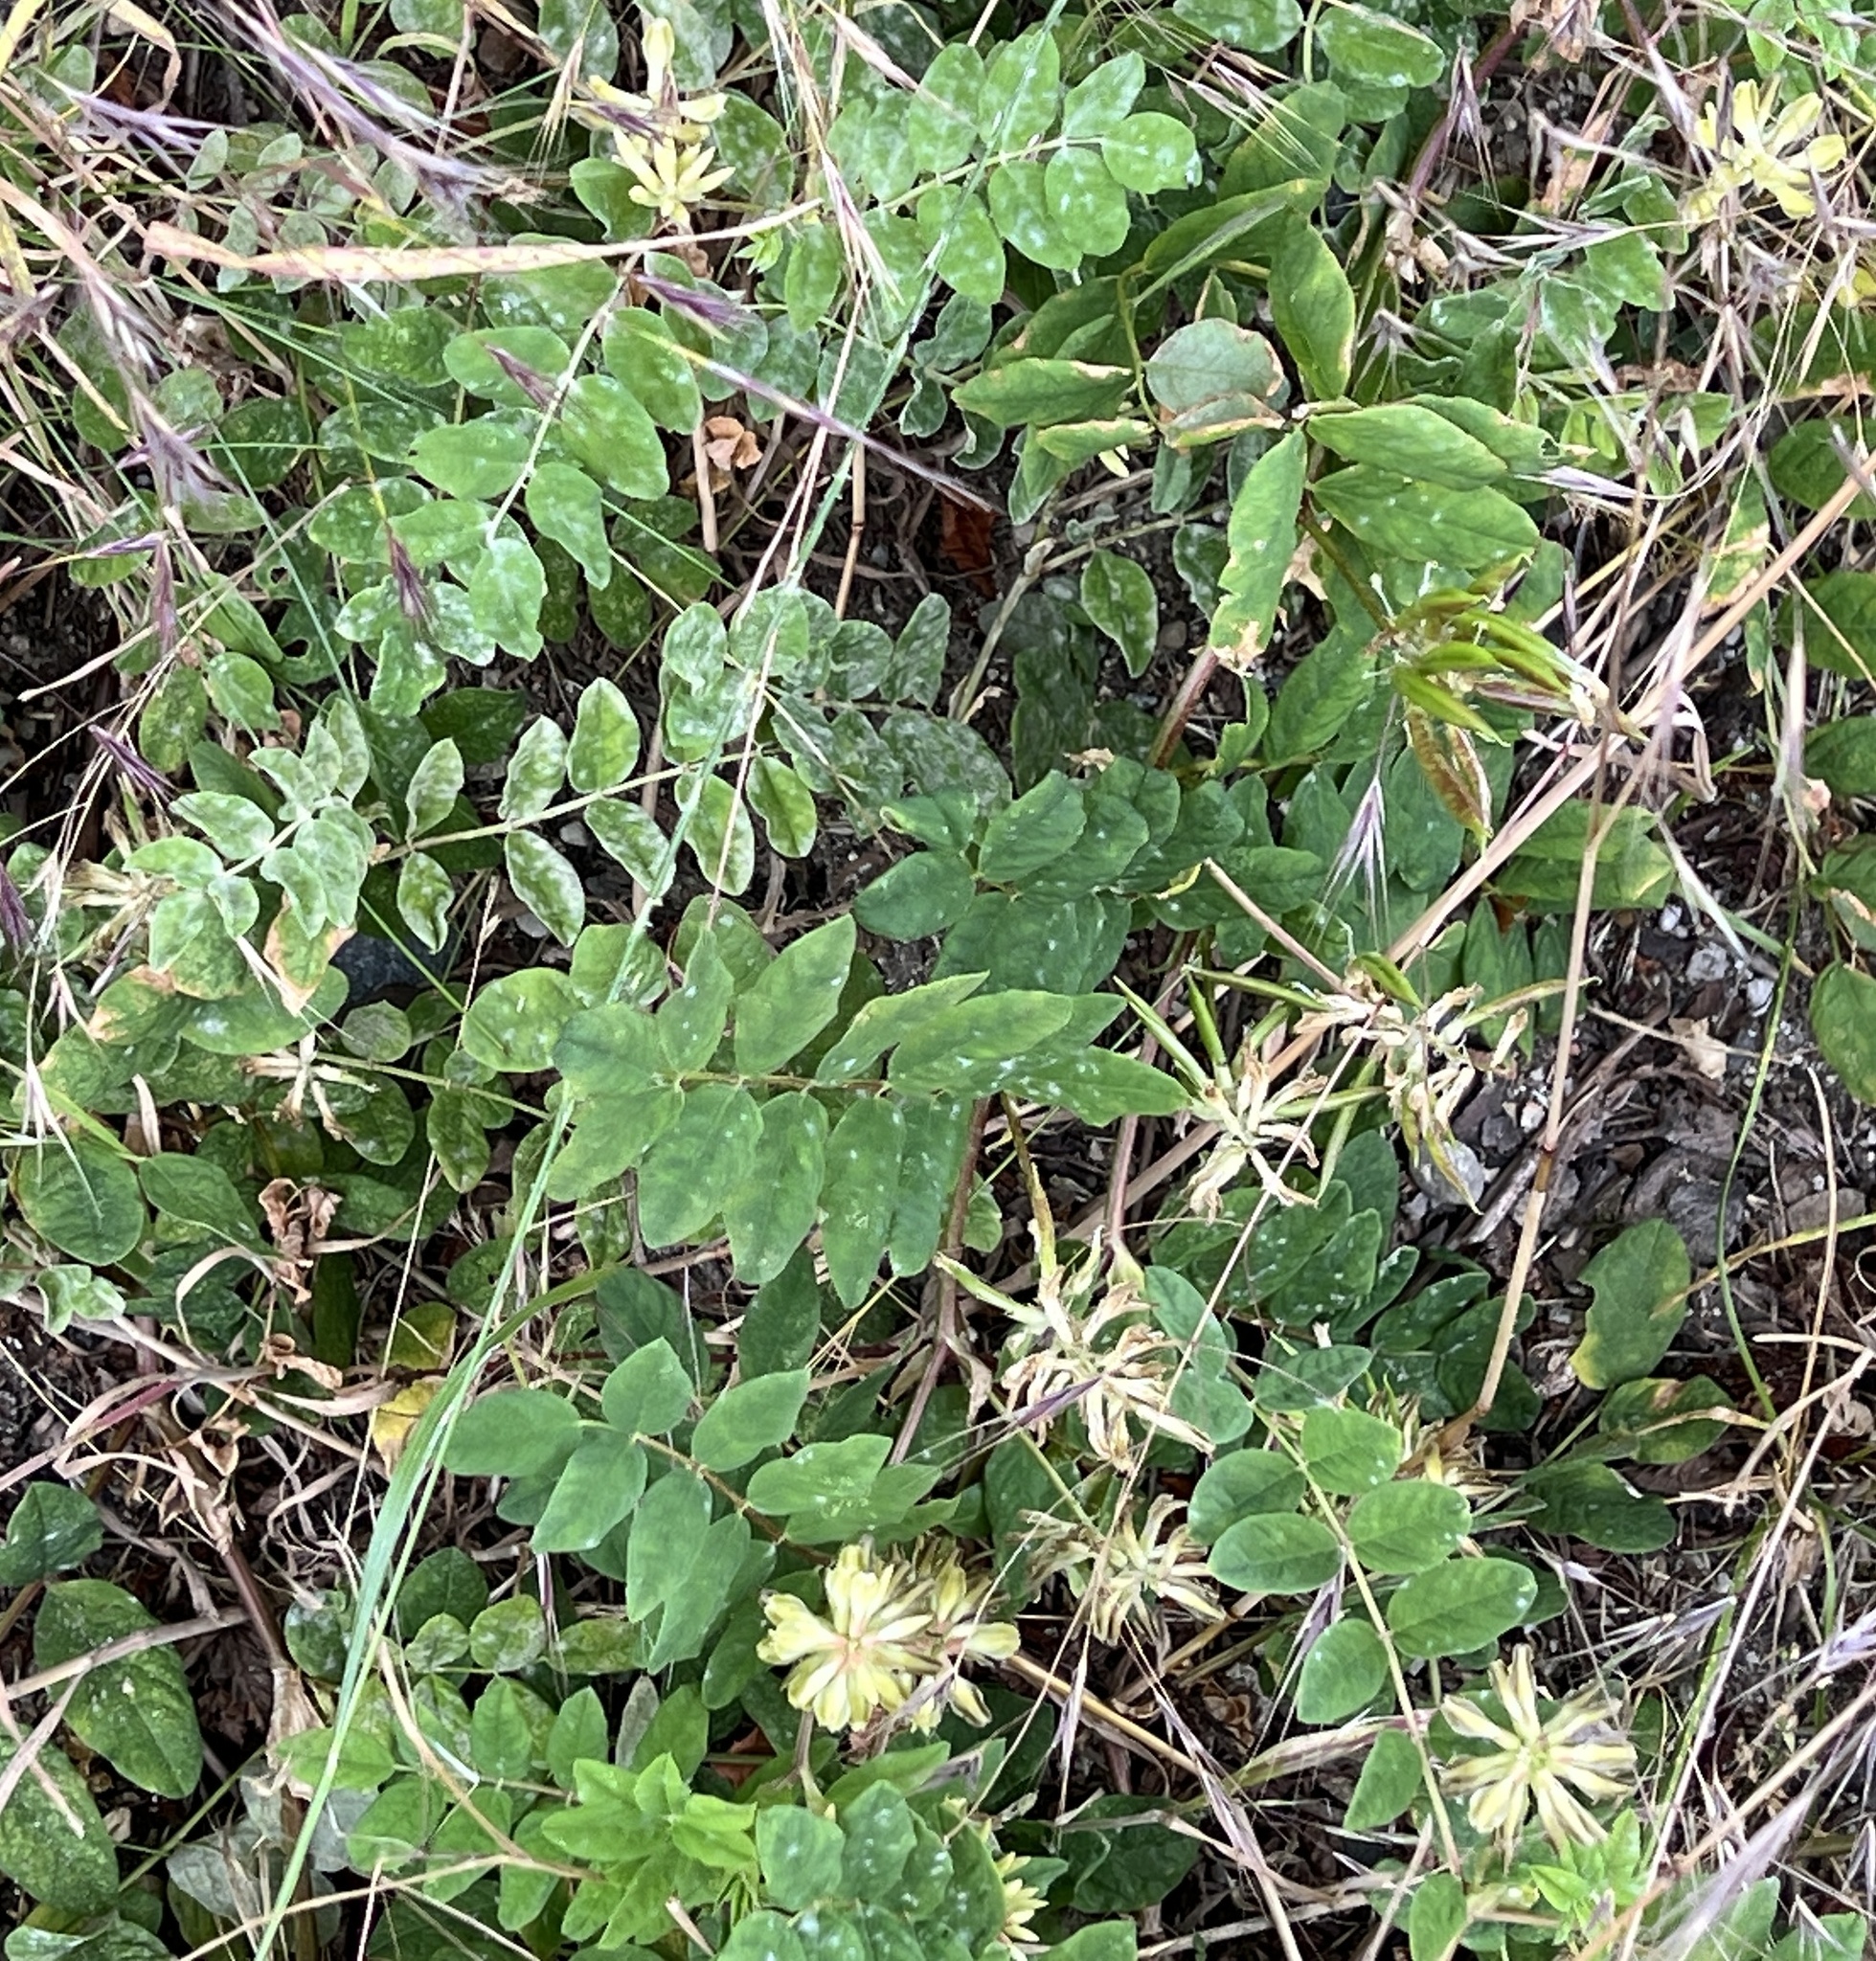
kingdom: Plantae
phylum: Tracheophyta
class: Magnoliopsida
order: Fabales
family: Fabaceae
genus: Astragalus
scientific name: Astragalus glycyphyllos
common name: Wild liquorice
